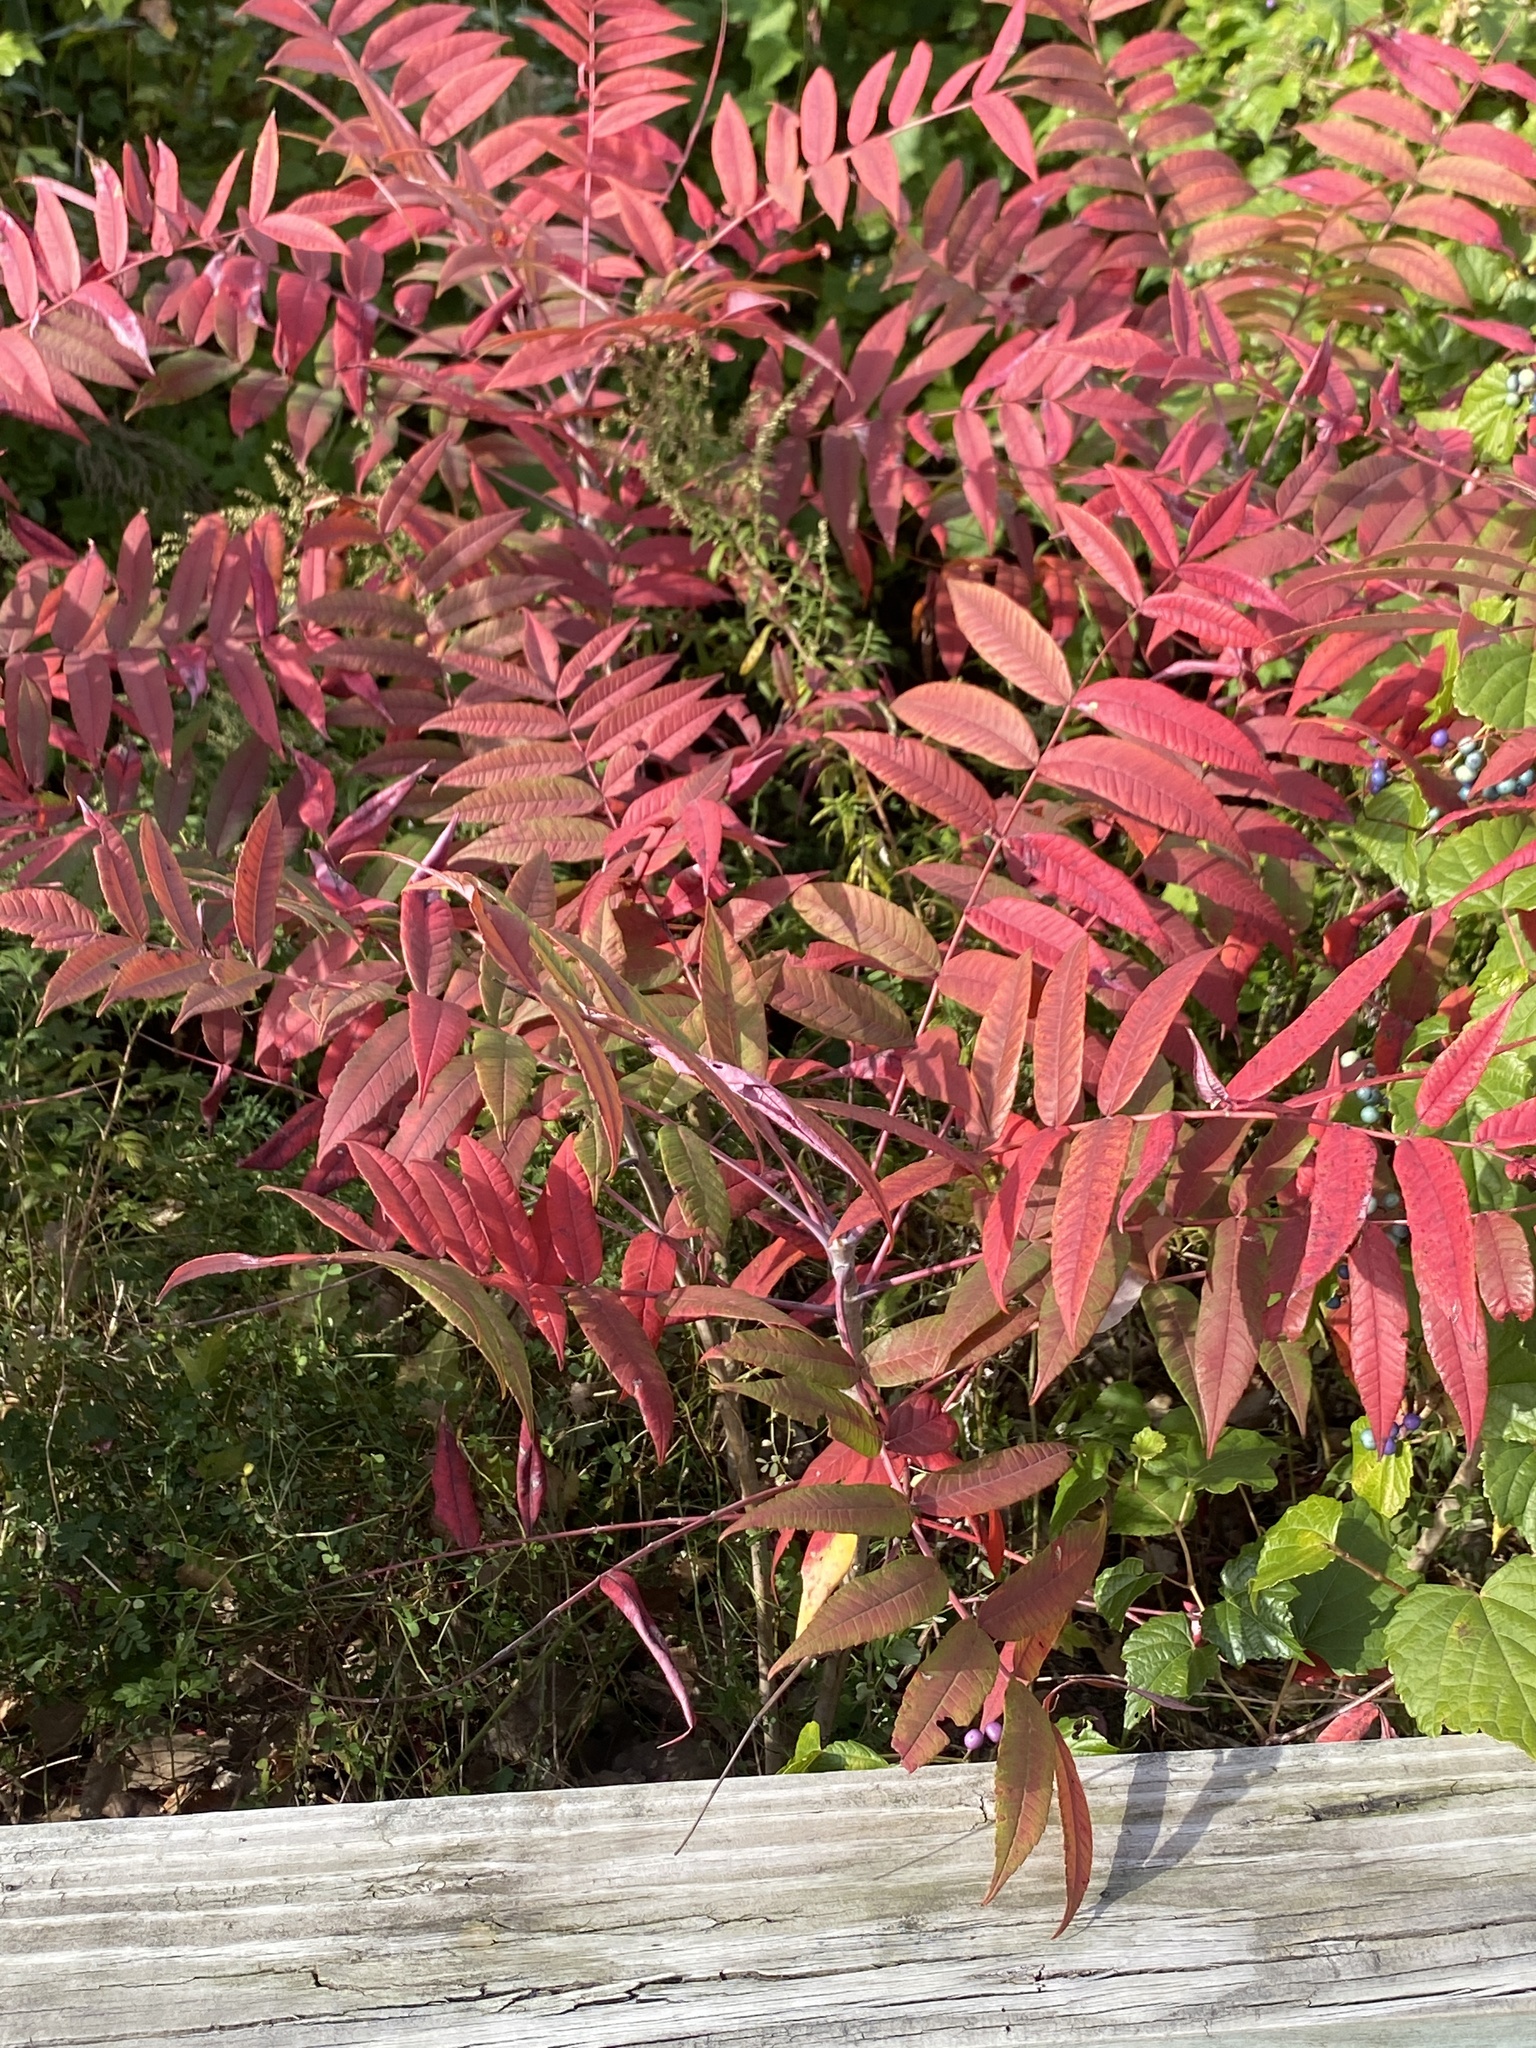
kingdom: Plantae
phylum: Tracheophyta
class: Magnoliopsida
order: Sapindales
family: Anacardiaceae
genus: Rhus
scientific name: Rhus glabra
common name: Scarlet sumac
